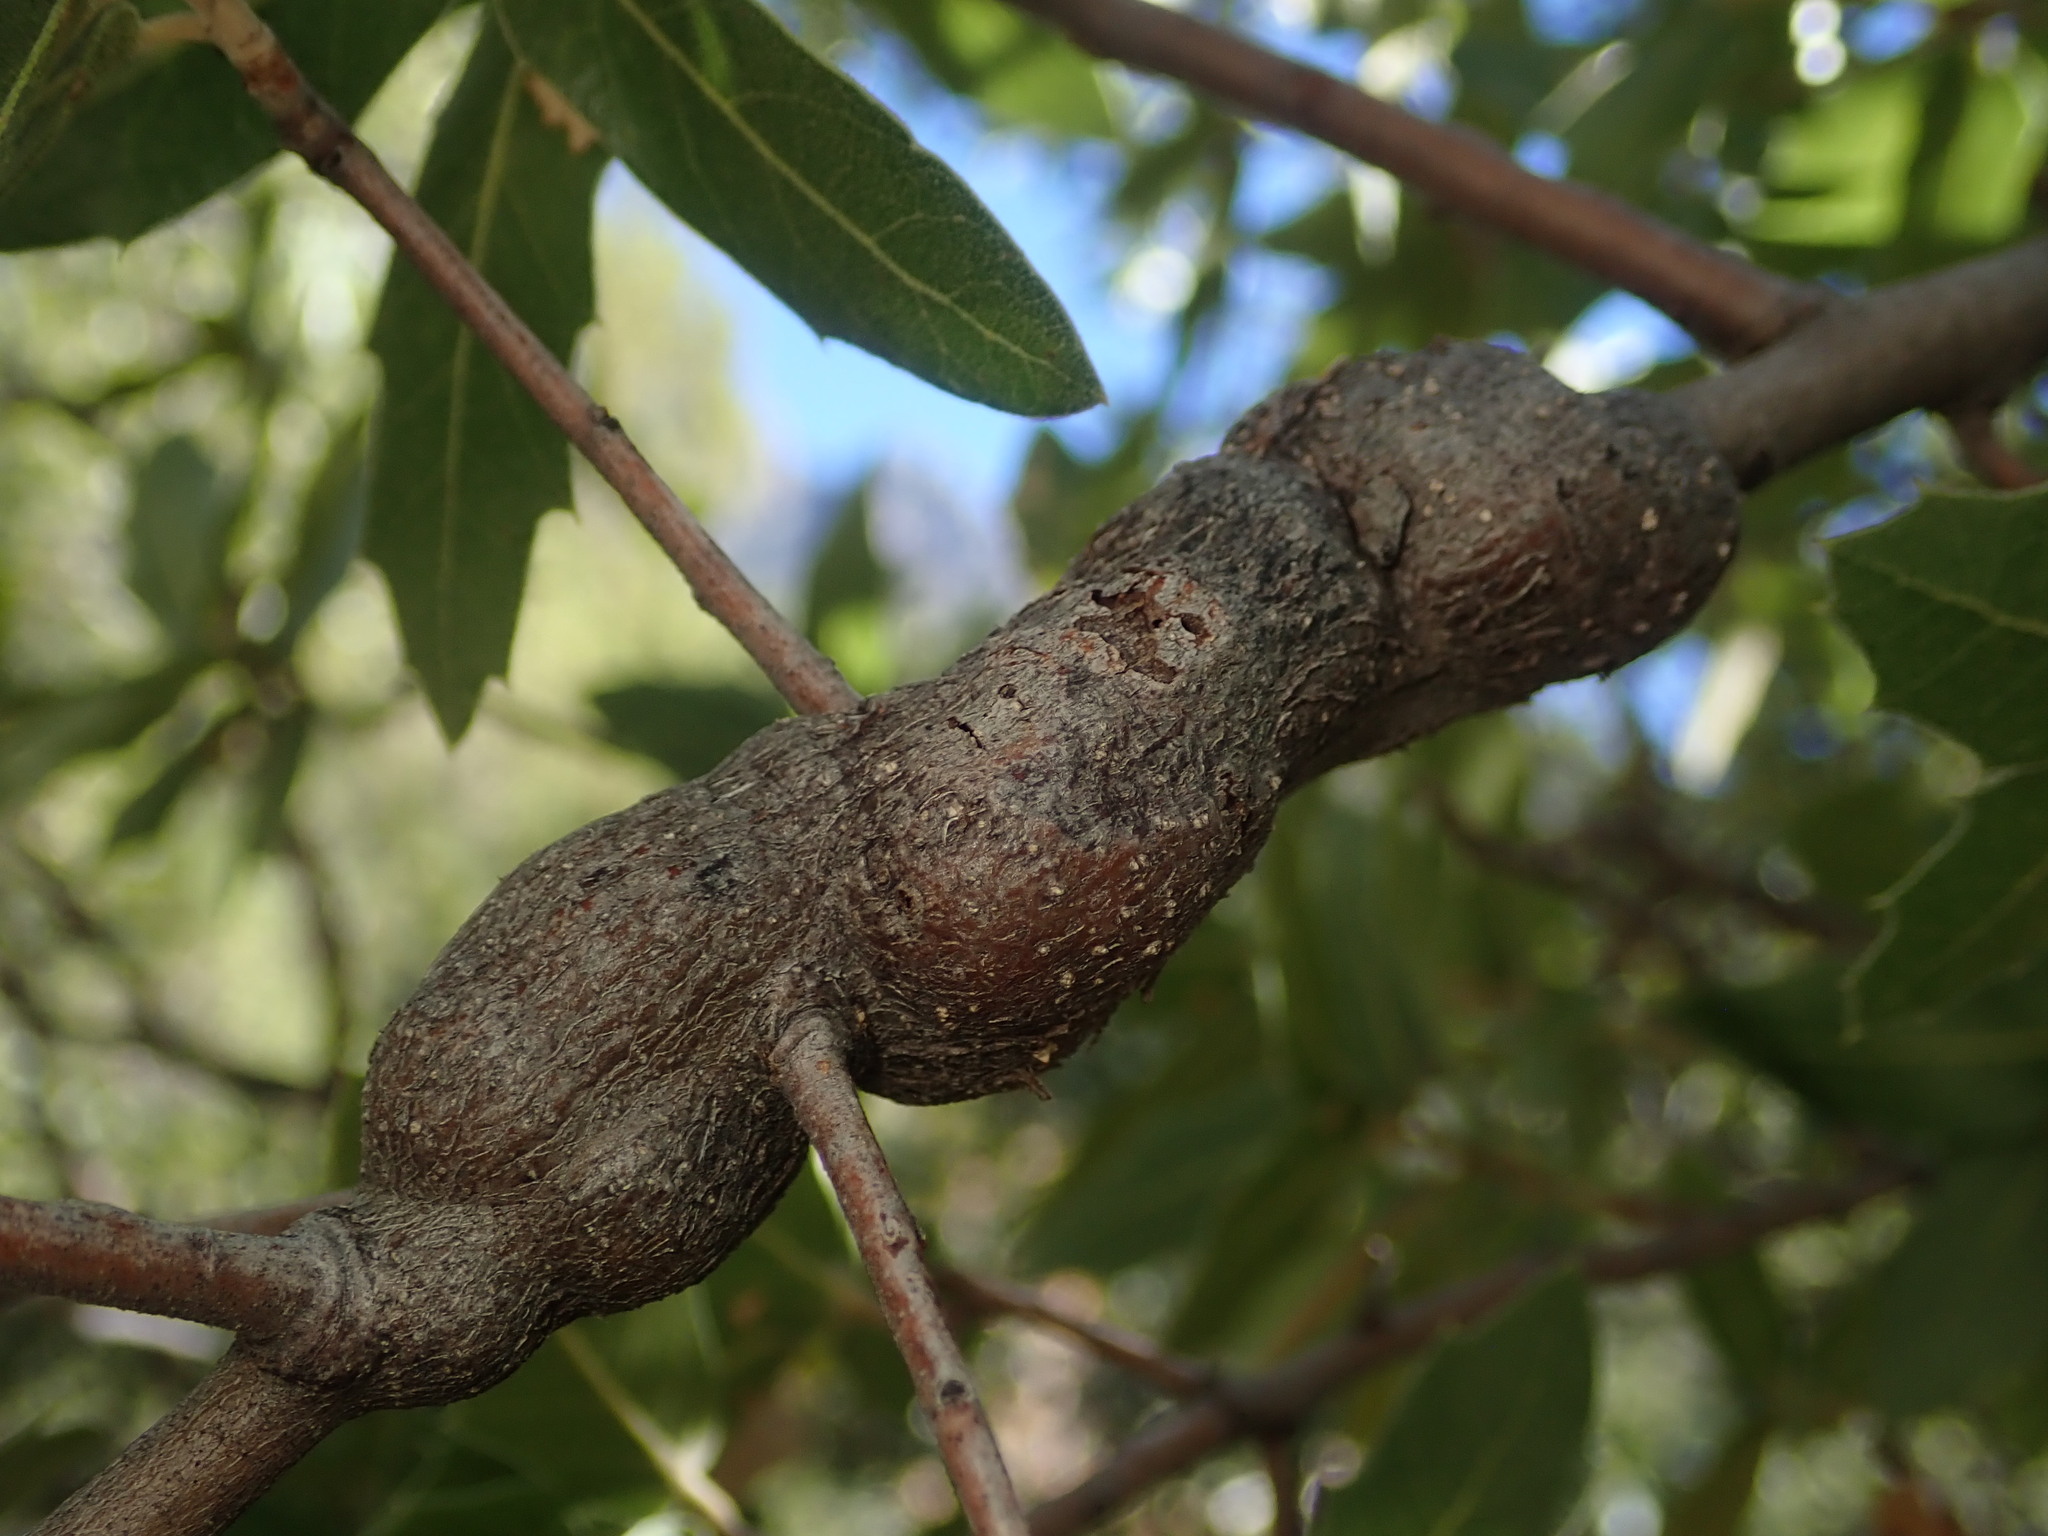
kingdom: Animalia
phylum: Arthropoda
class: Insecta
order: Hymenoptera
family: Cynipidae
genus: Kokkocynips
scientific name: Kokkocynips coxii
